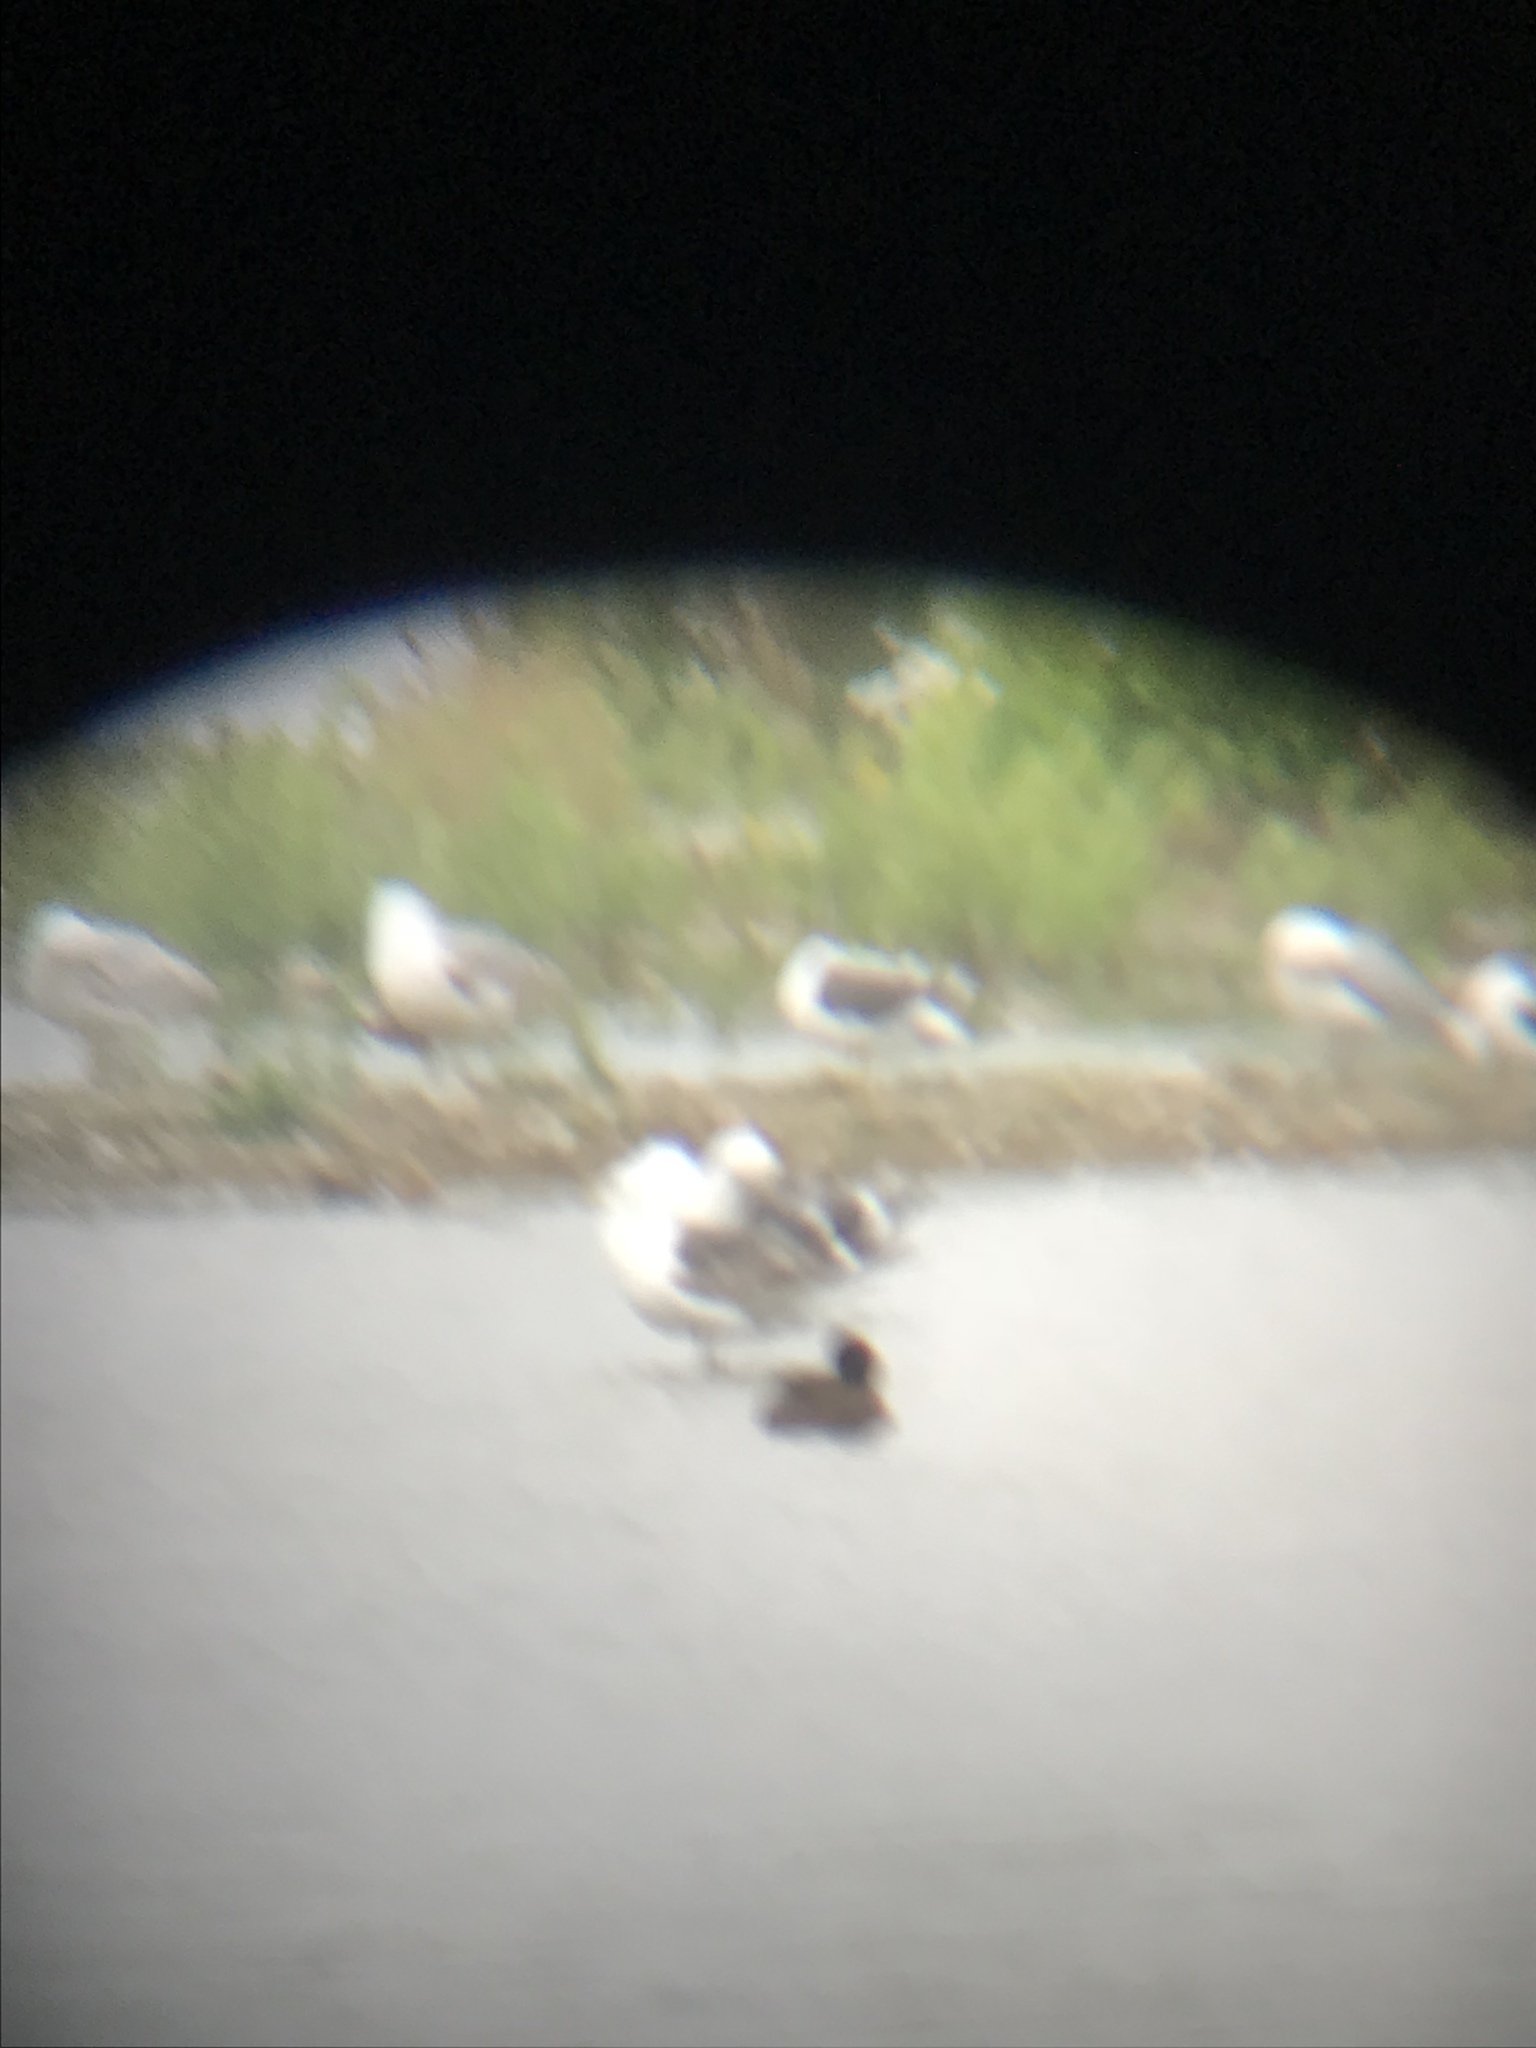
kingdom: Animalia
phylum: Chordata
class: Aves
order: Charadriiformes
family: Laridae
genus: Larus
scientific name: Larus fuscus
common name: Lesser black-backed gull
